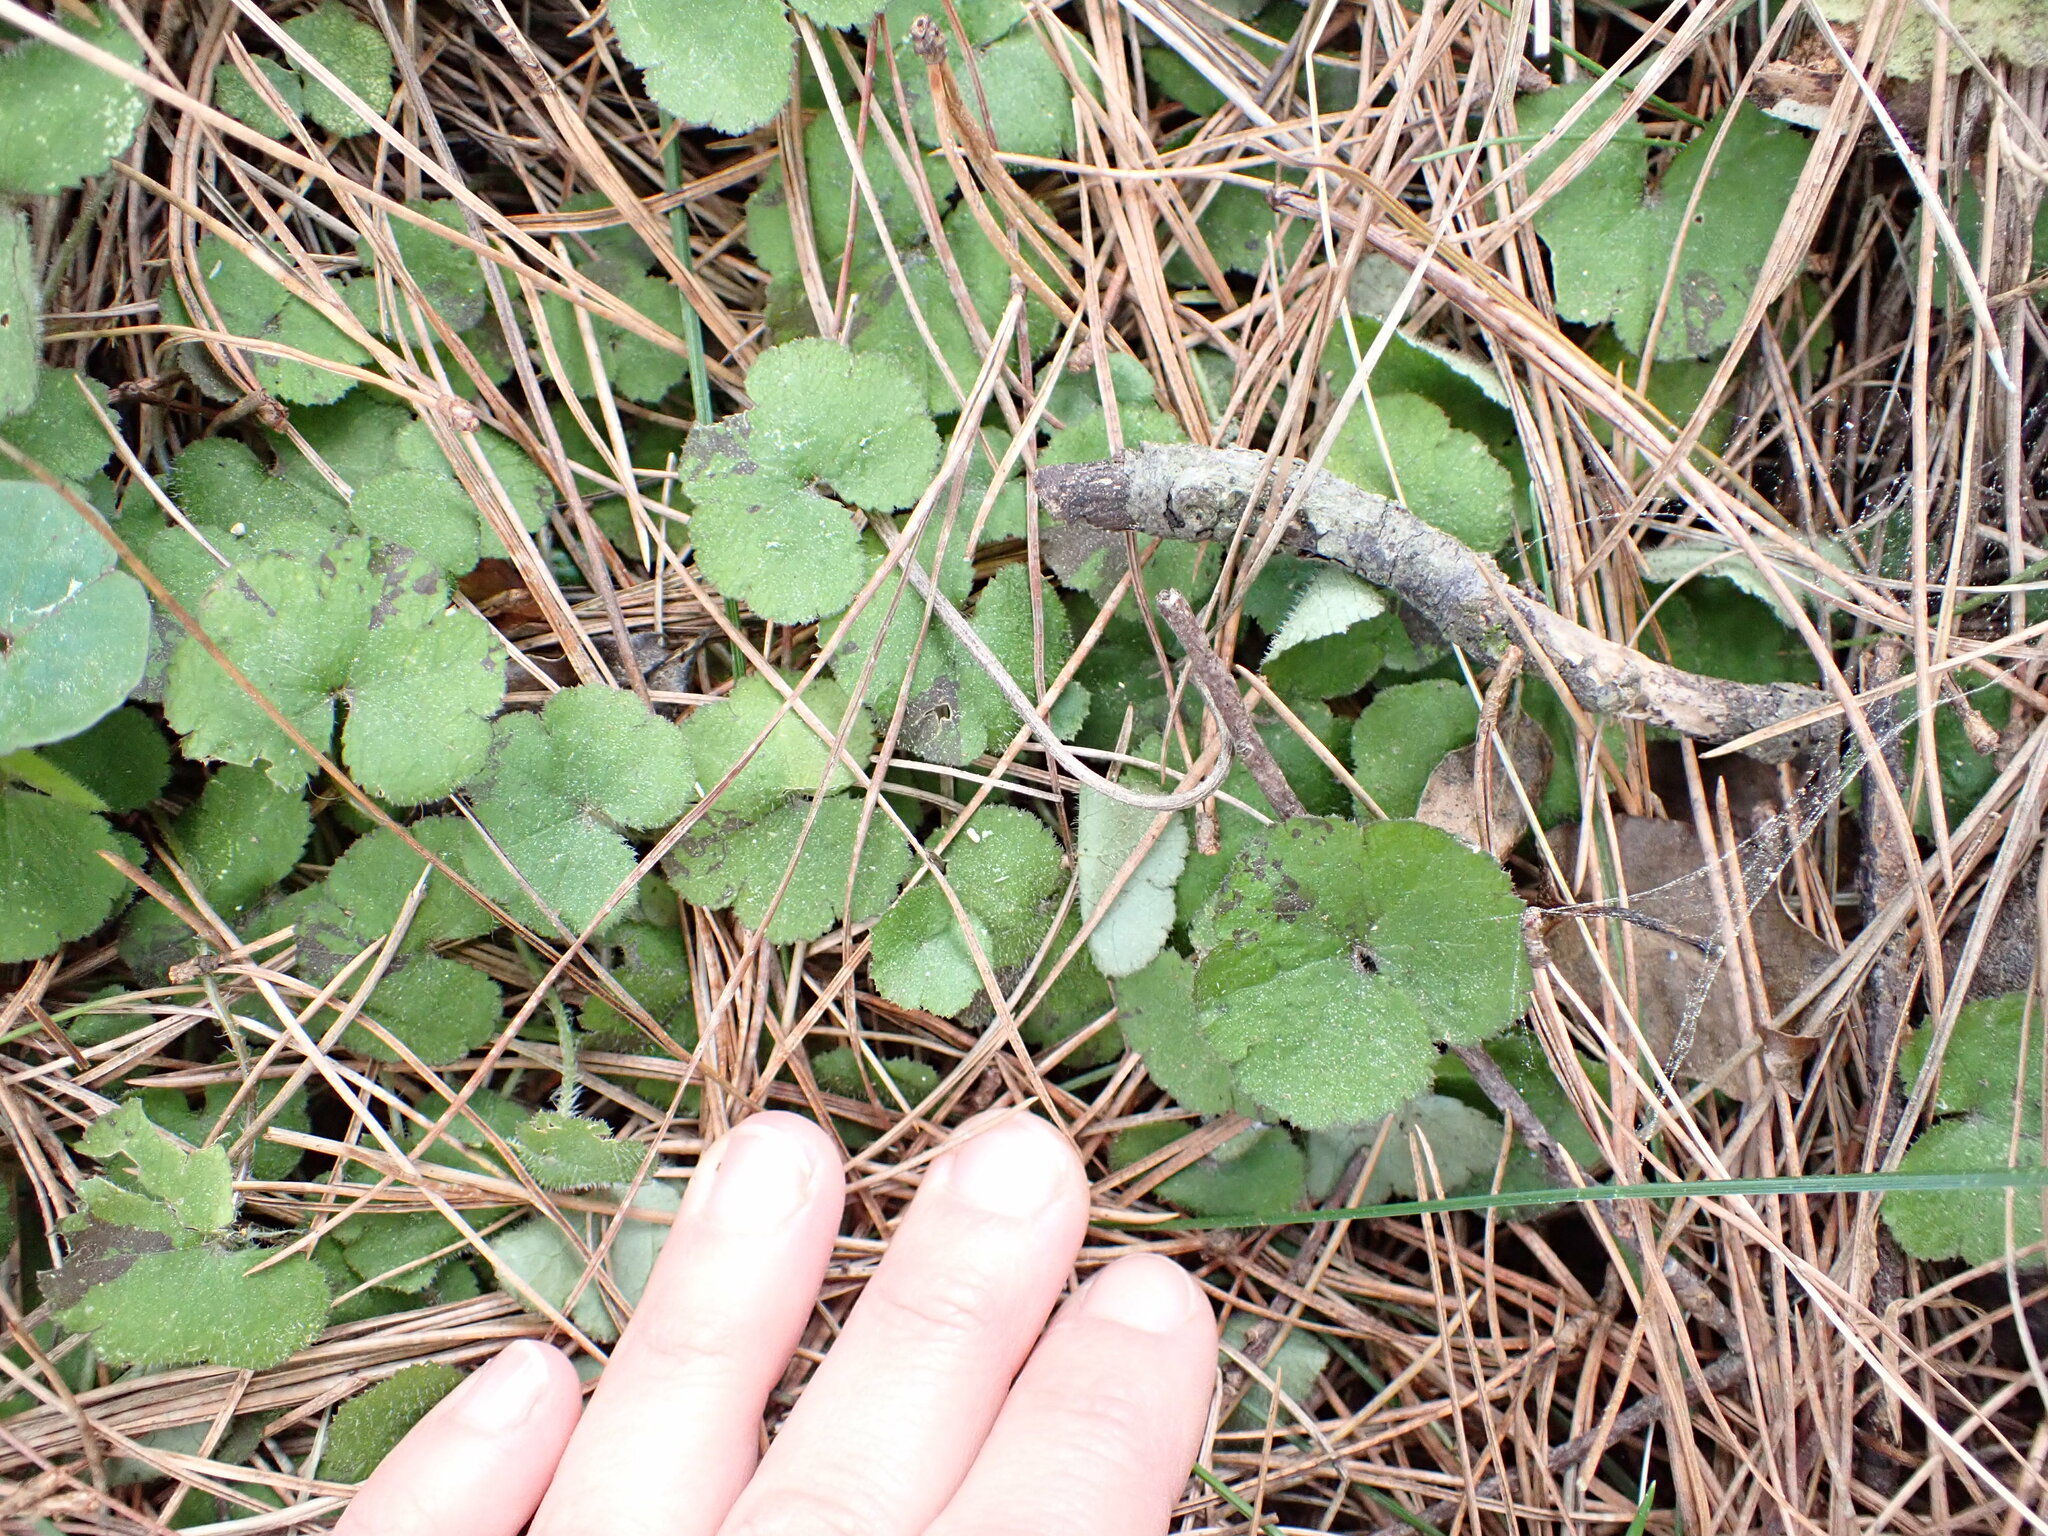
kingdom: Plantae
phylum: Tracheophyta
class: Magnoliopsida
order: Apiales
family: Araliaceae
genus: Hydrocotyle
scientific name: Hydrocotyle novae-zeelandiae
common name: New zealand pennywort
